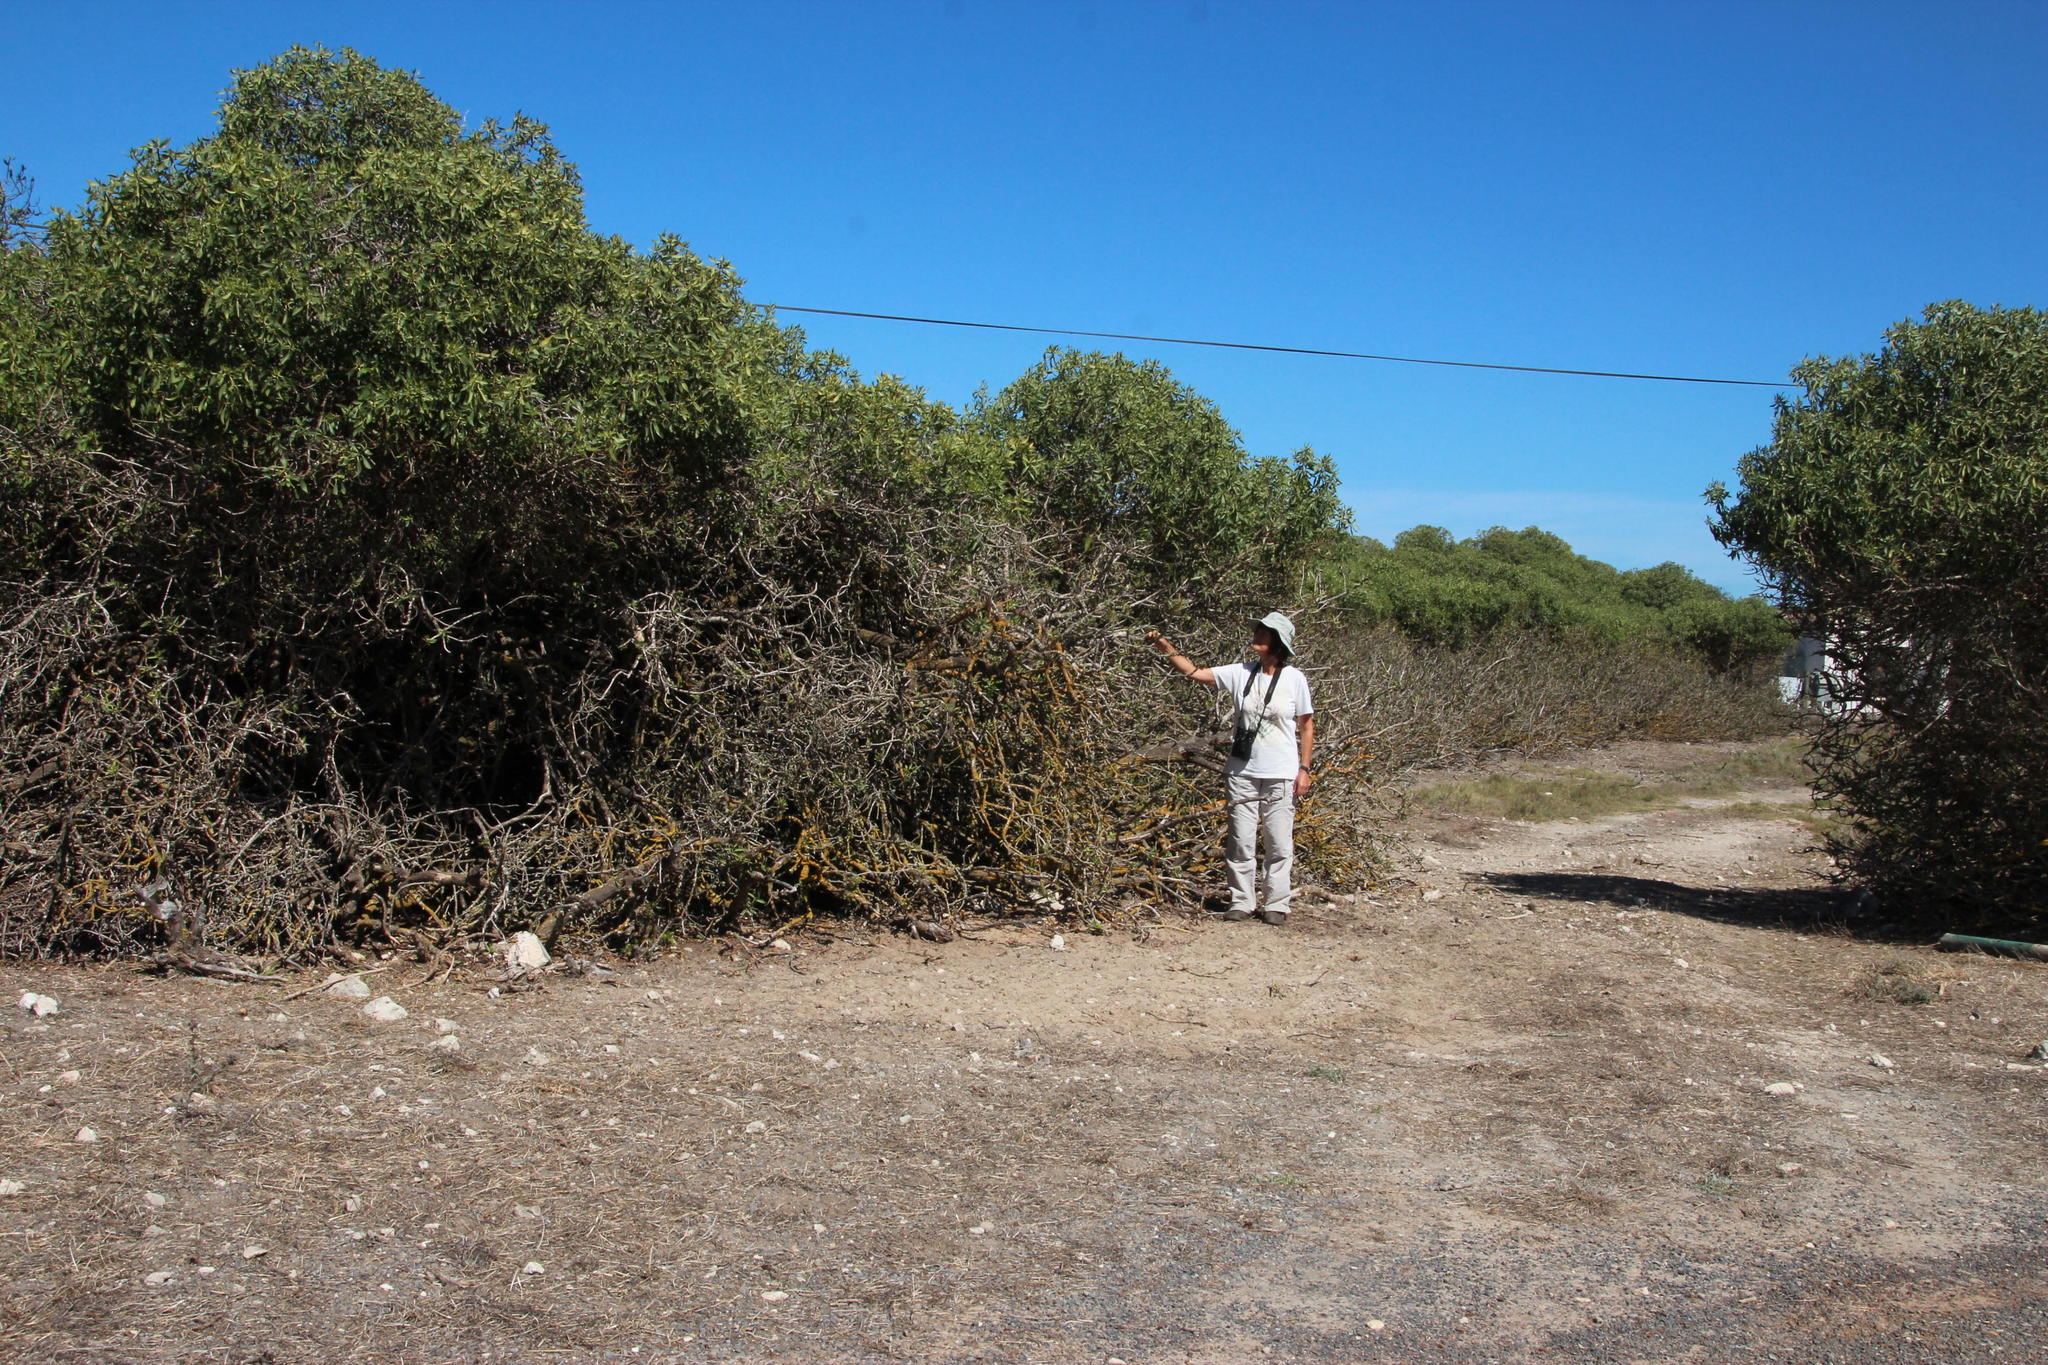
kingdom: Plantae
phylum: Tracheophyta
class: Magnoliopsida
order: Lamiales
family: Scrophulariaceae
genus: Myoporum
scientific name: Myoporum montanum
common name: Waterbush
